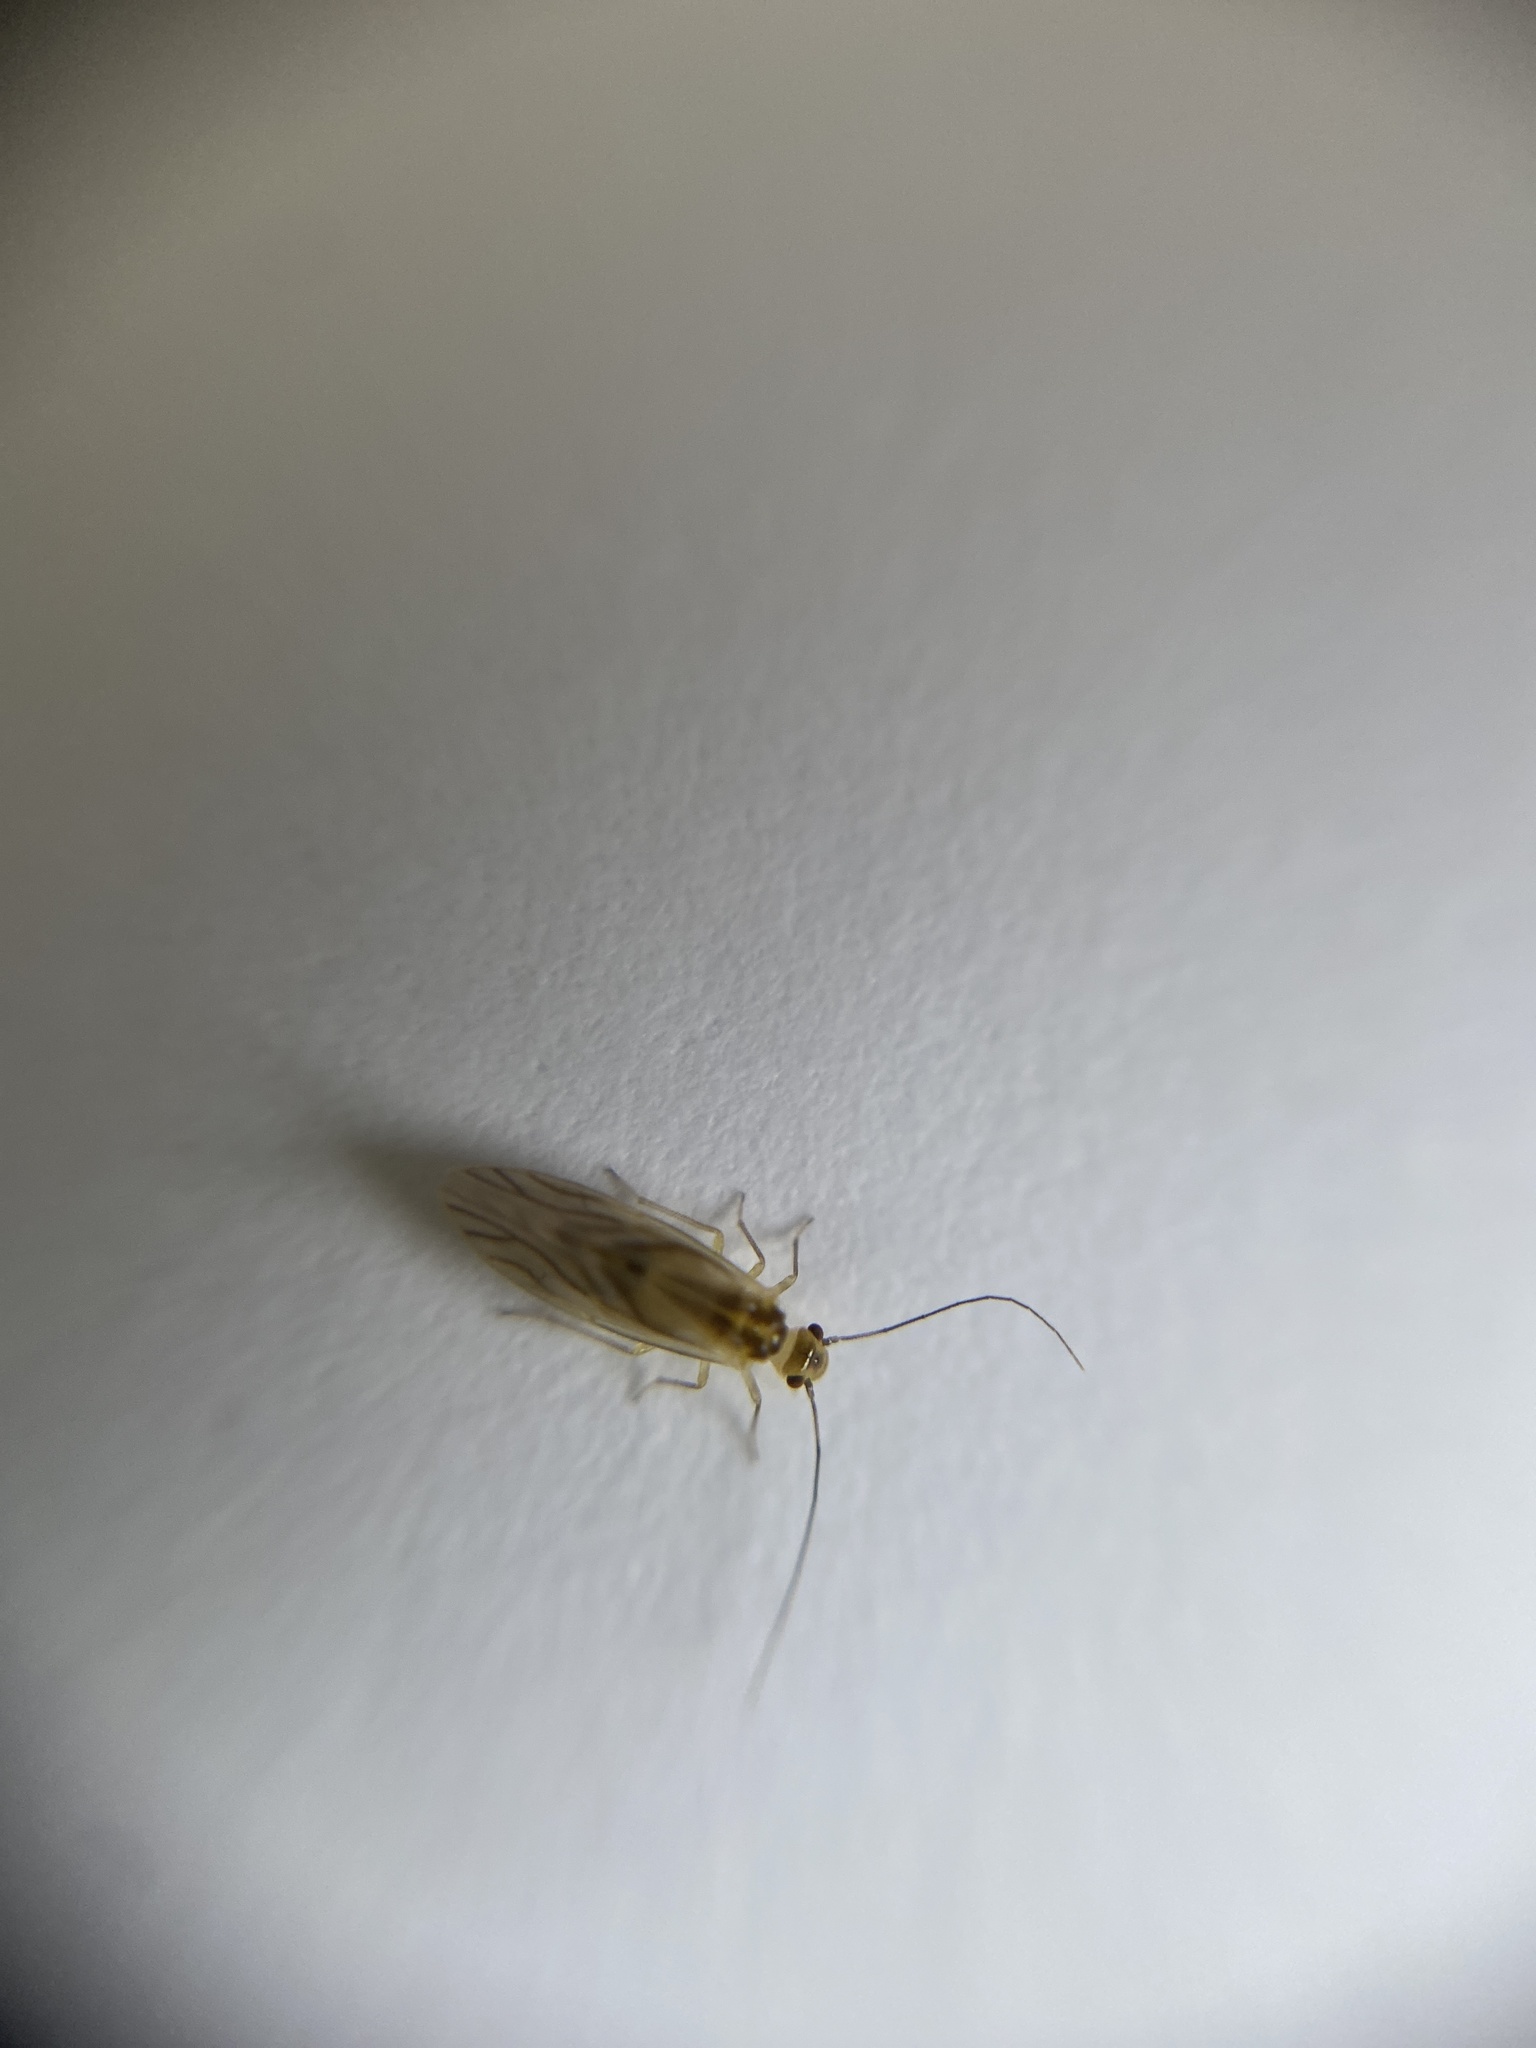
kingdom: Animalia
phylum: Arthropoda
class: Insecta
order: Psocodea
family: Caeciliusidae
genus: Valenzuela
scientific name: Valenzuela flavidus
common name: Yellow barklouse
